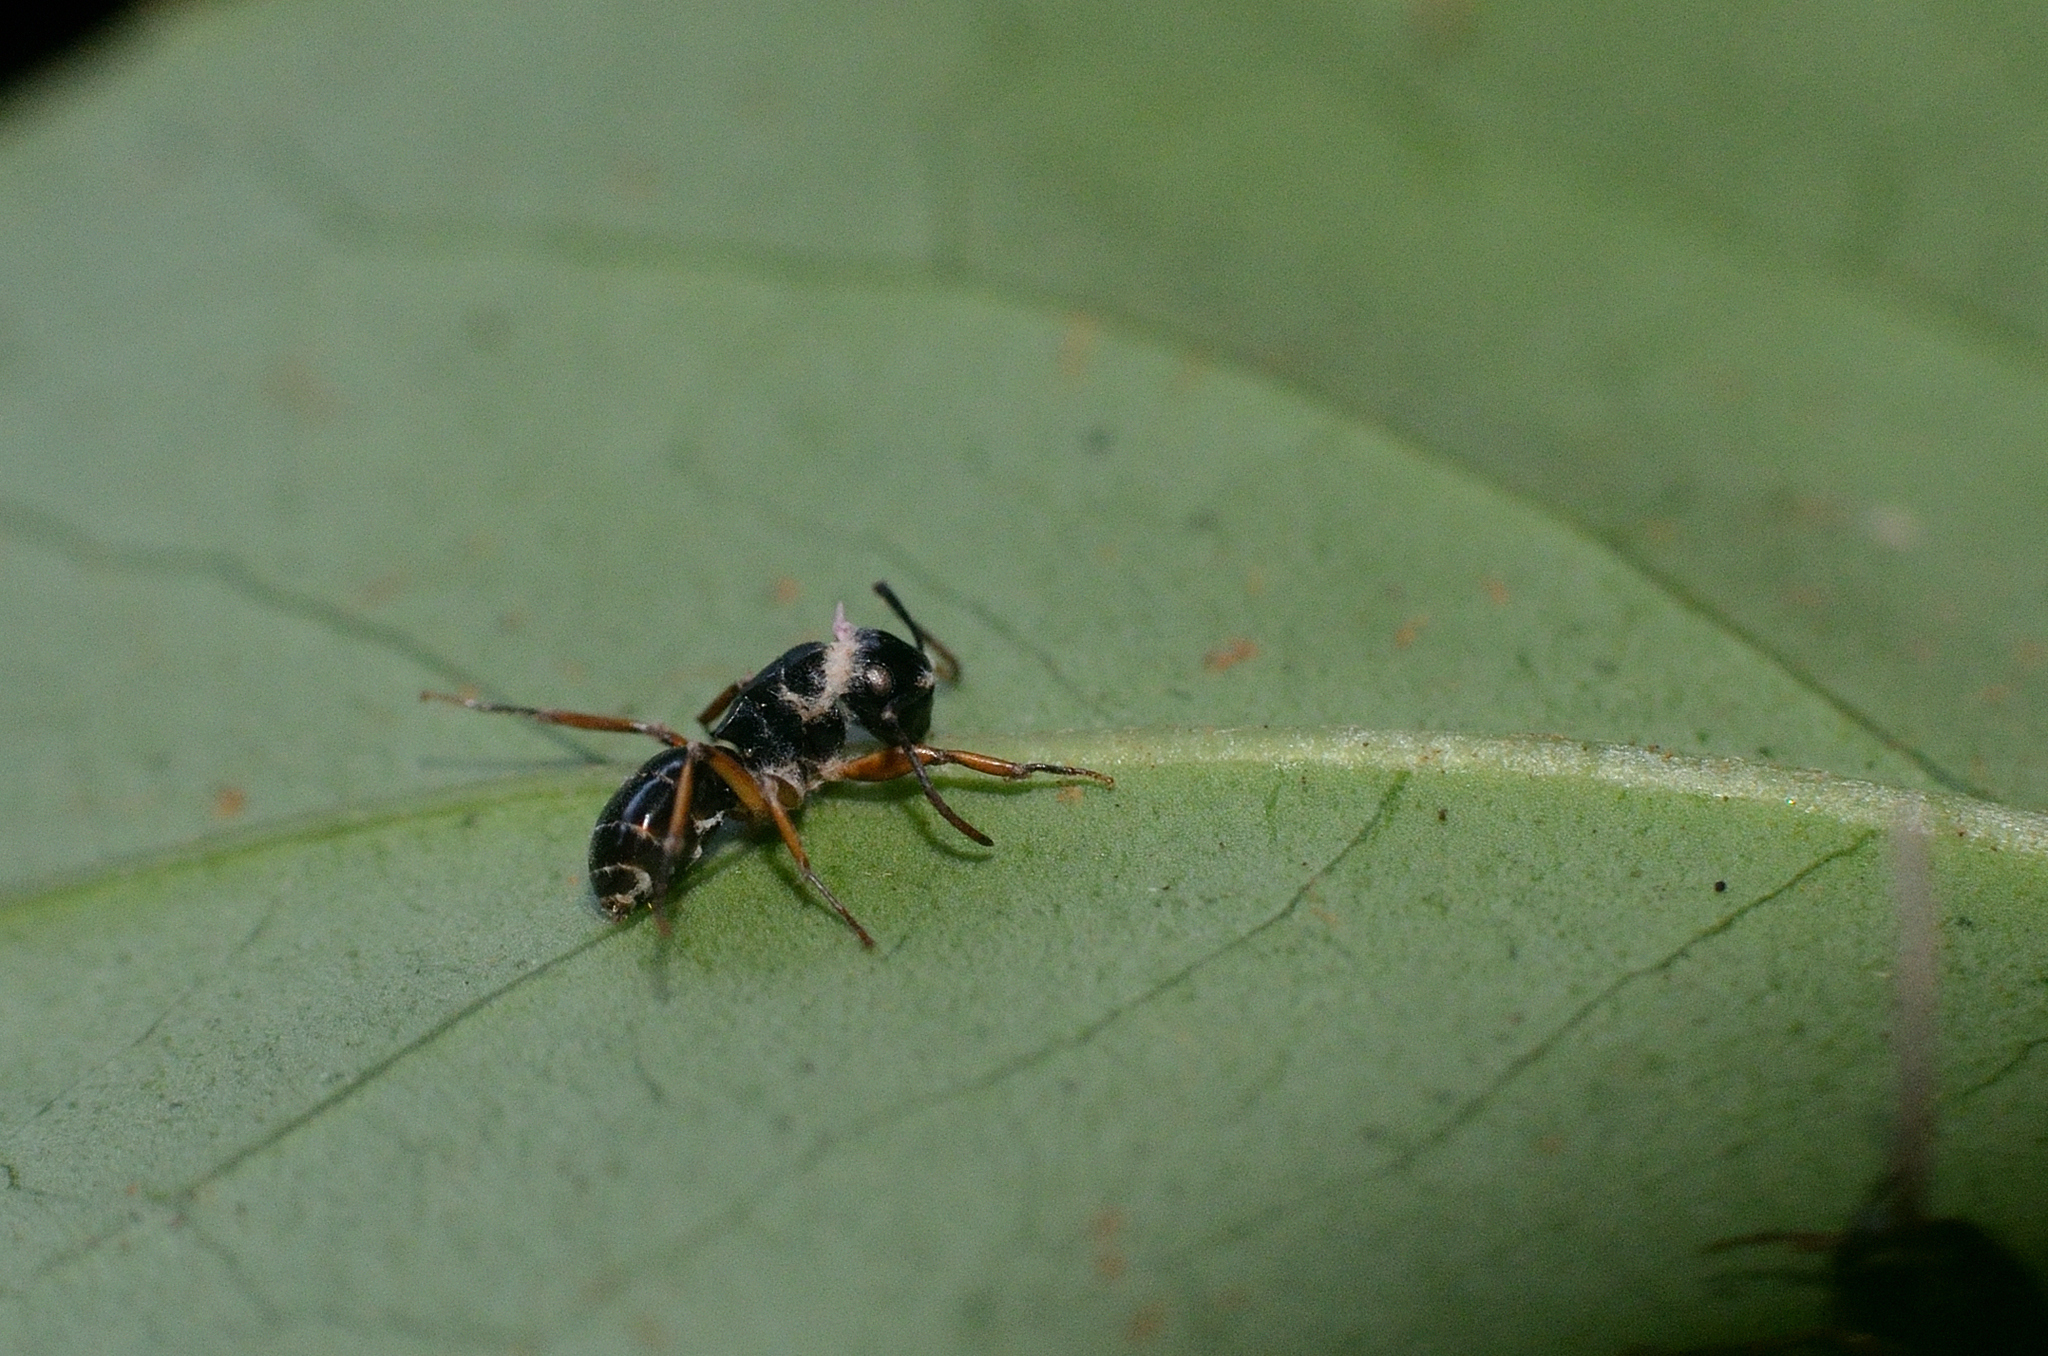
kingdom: Animalia
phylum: Arthropoda
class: Insecta
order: Hymenoptera
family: Formicidae
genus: Polyrhachis
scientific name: Polyrhachis exercita
